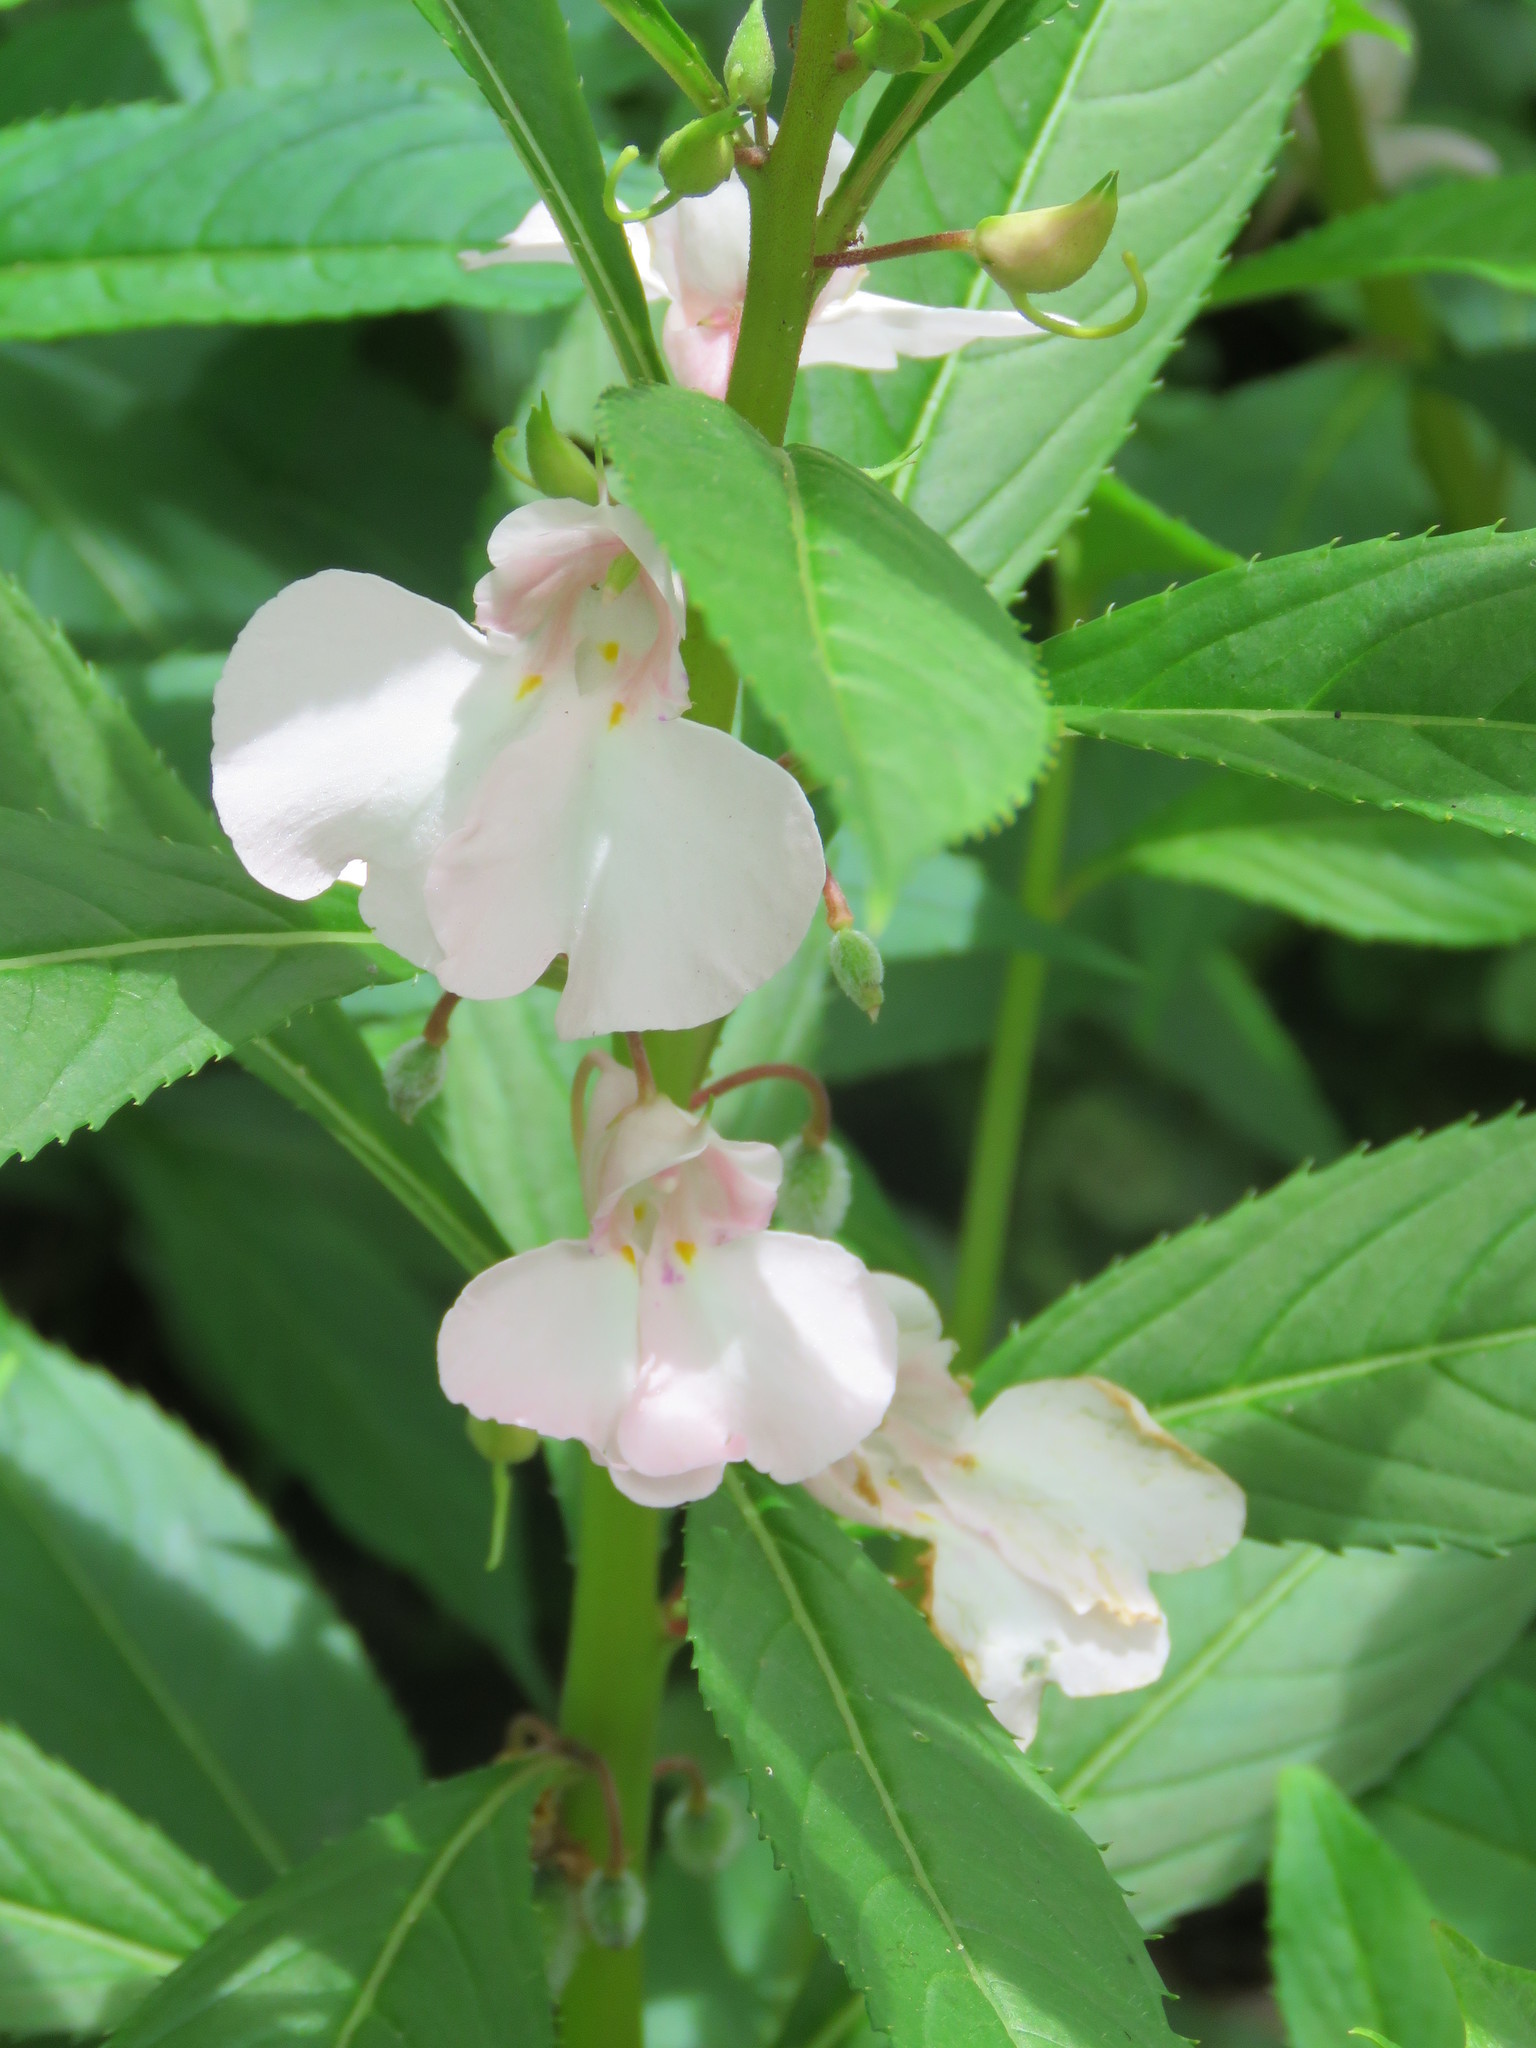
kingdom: Plantae
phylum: Tracheophyta
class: Magnoliopsida
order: Ericales
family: Balsaminaceae
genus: Impatiens
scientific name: Impatiens balsamina
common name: Balsam
